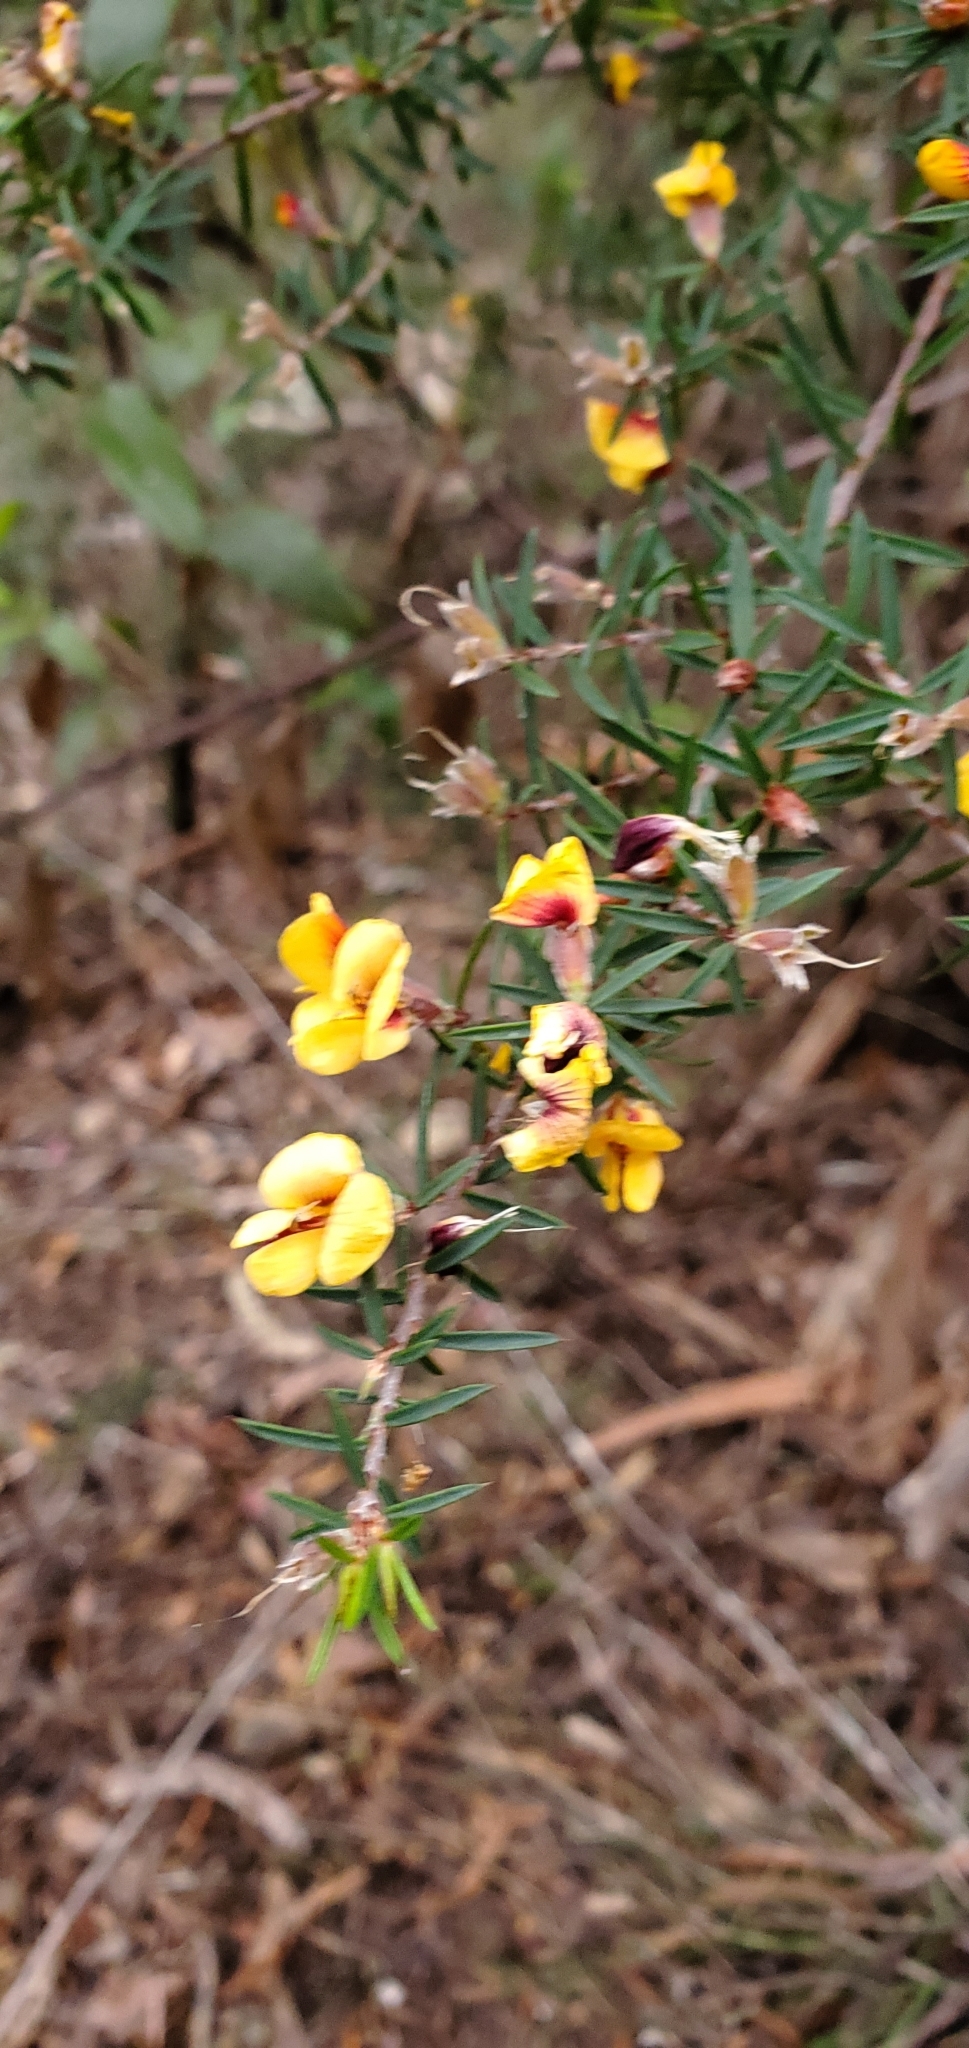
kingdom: Plantae
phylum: Tracheophyta
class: Magnoliopsida
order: Fabales
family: Fabaceae
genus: Pultenaea
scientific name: Pultenaea juniperina
